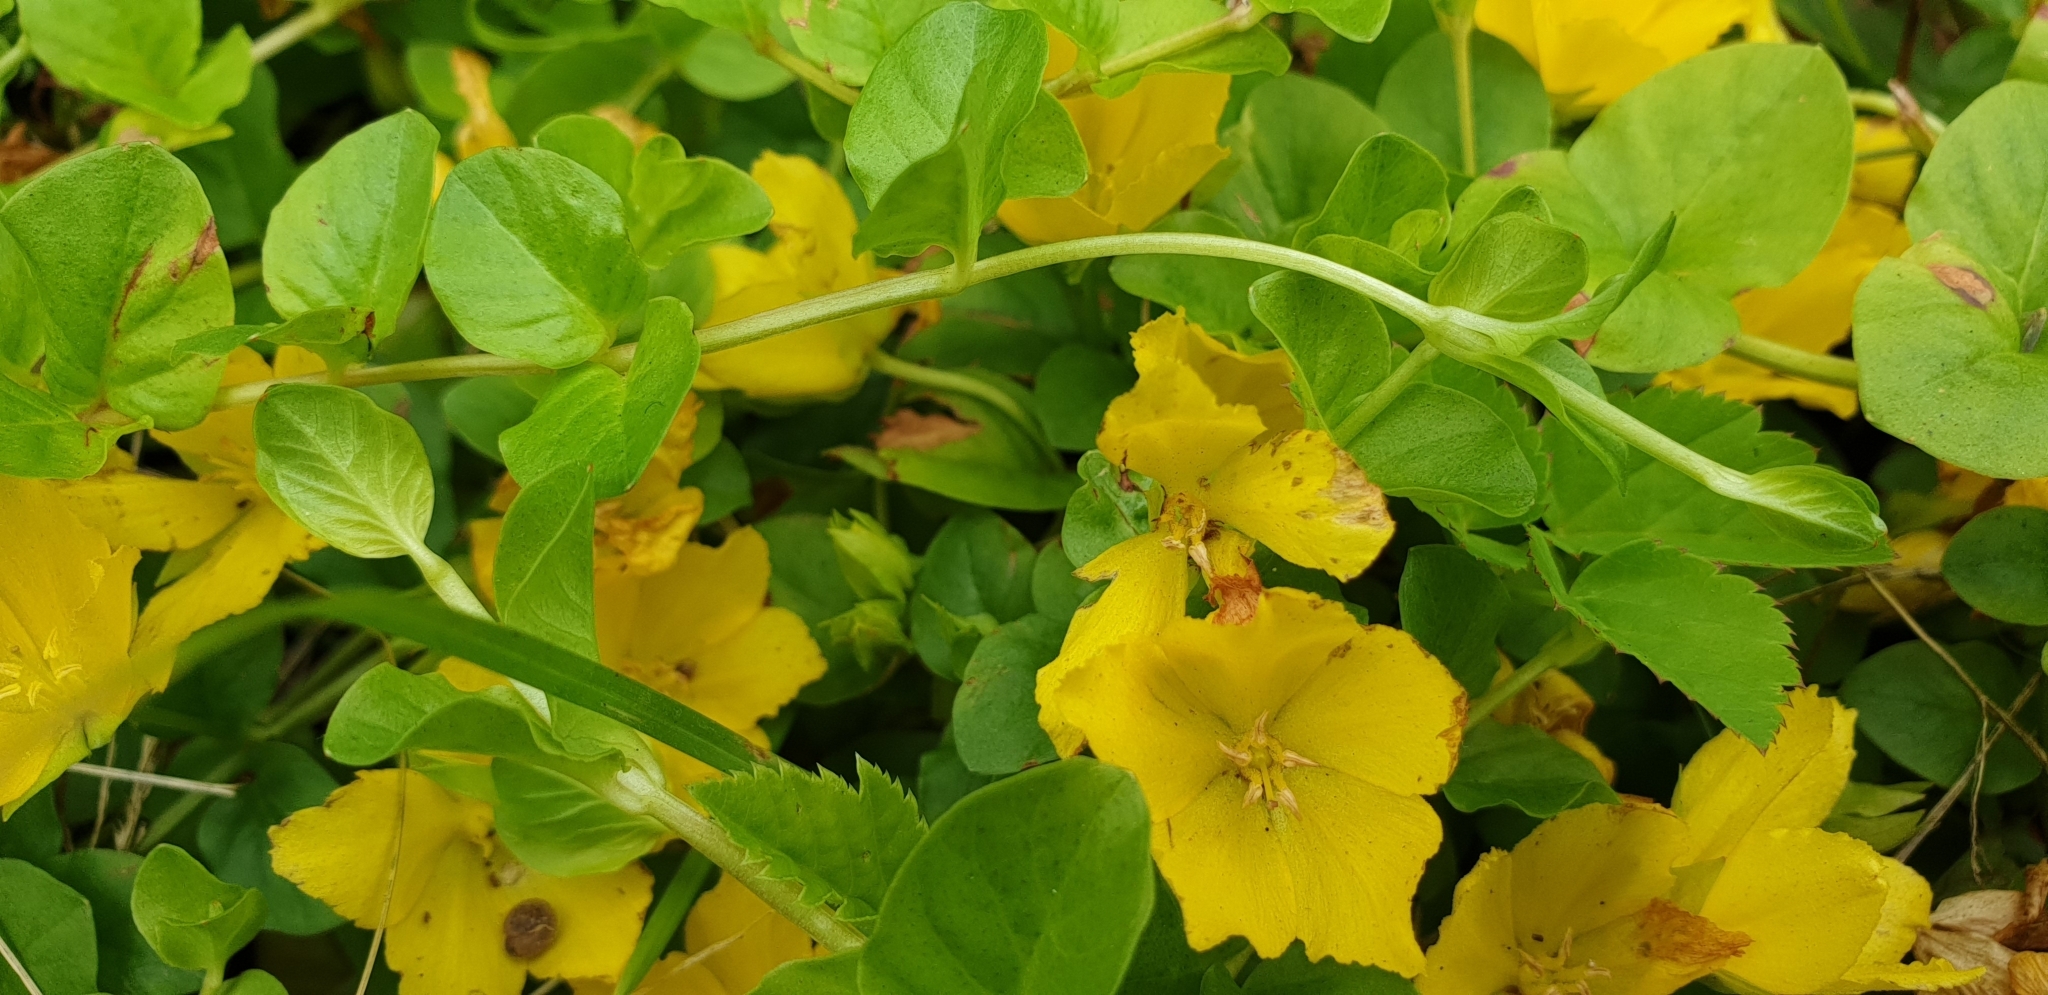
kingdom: Plantae
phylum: Tracheophyta
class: Magnoliopsida
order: Ericales
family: Primulaceae
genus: Lysimachia
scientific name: Lysimachia nummularia
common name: Moneywort
